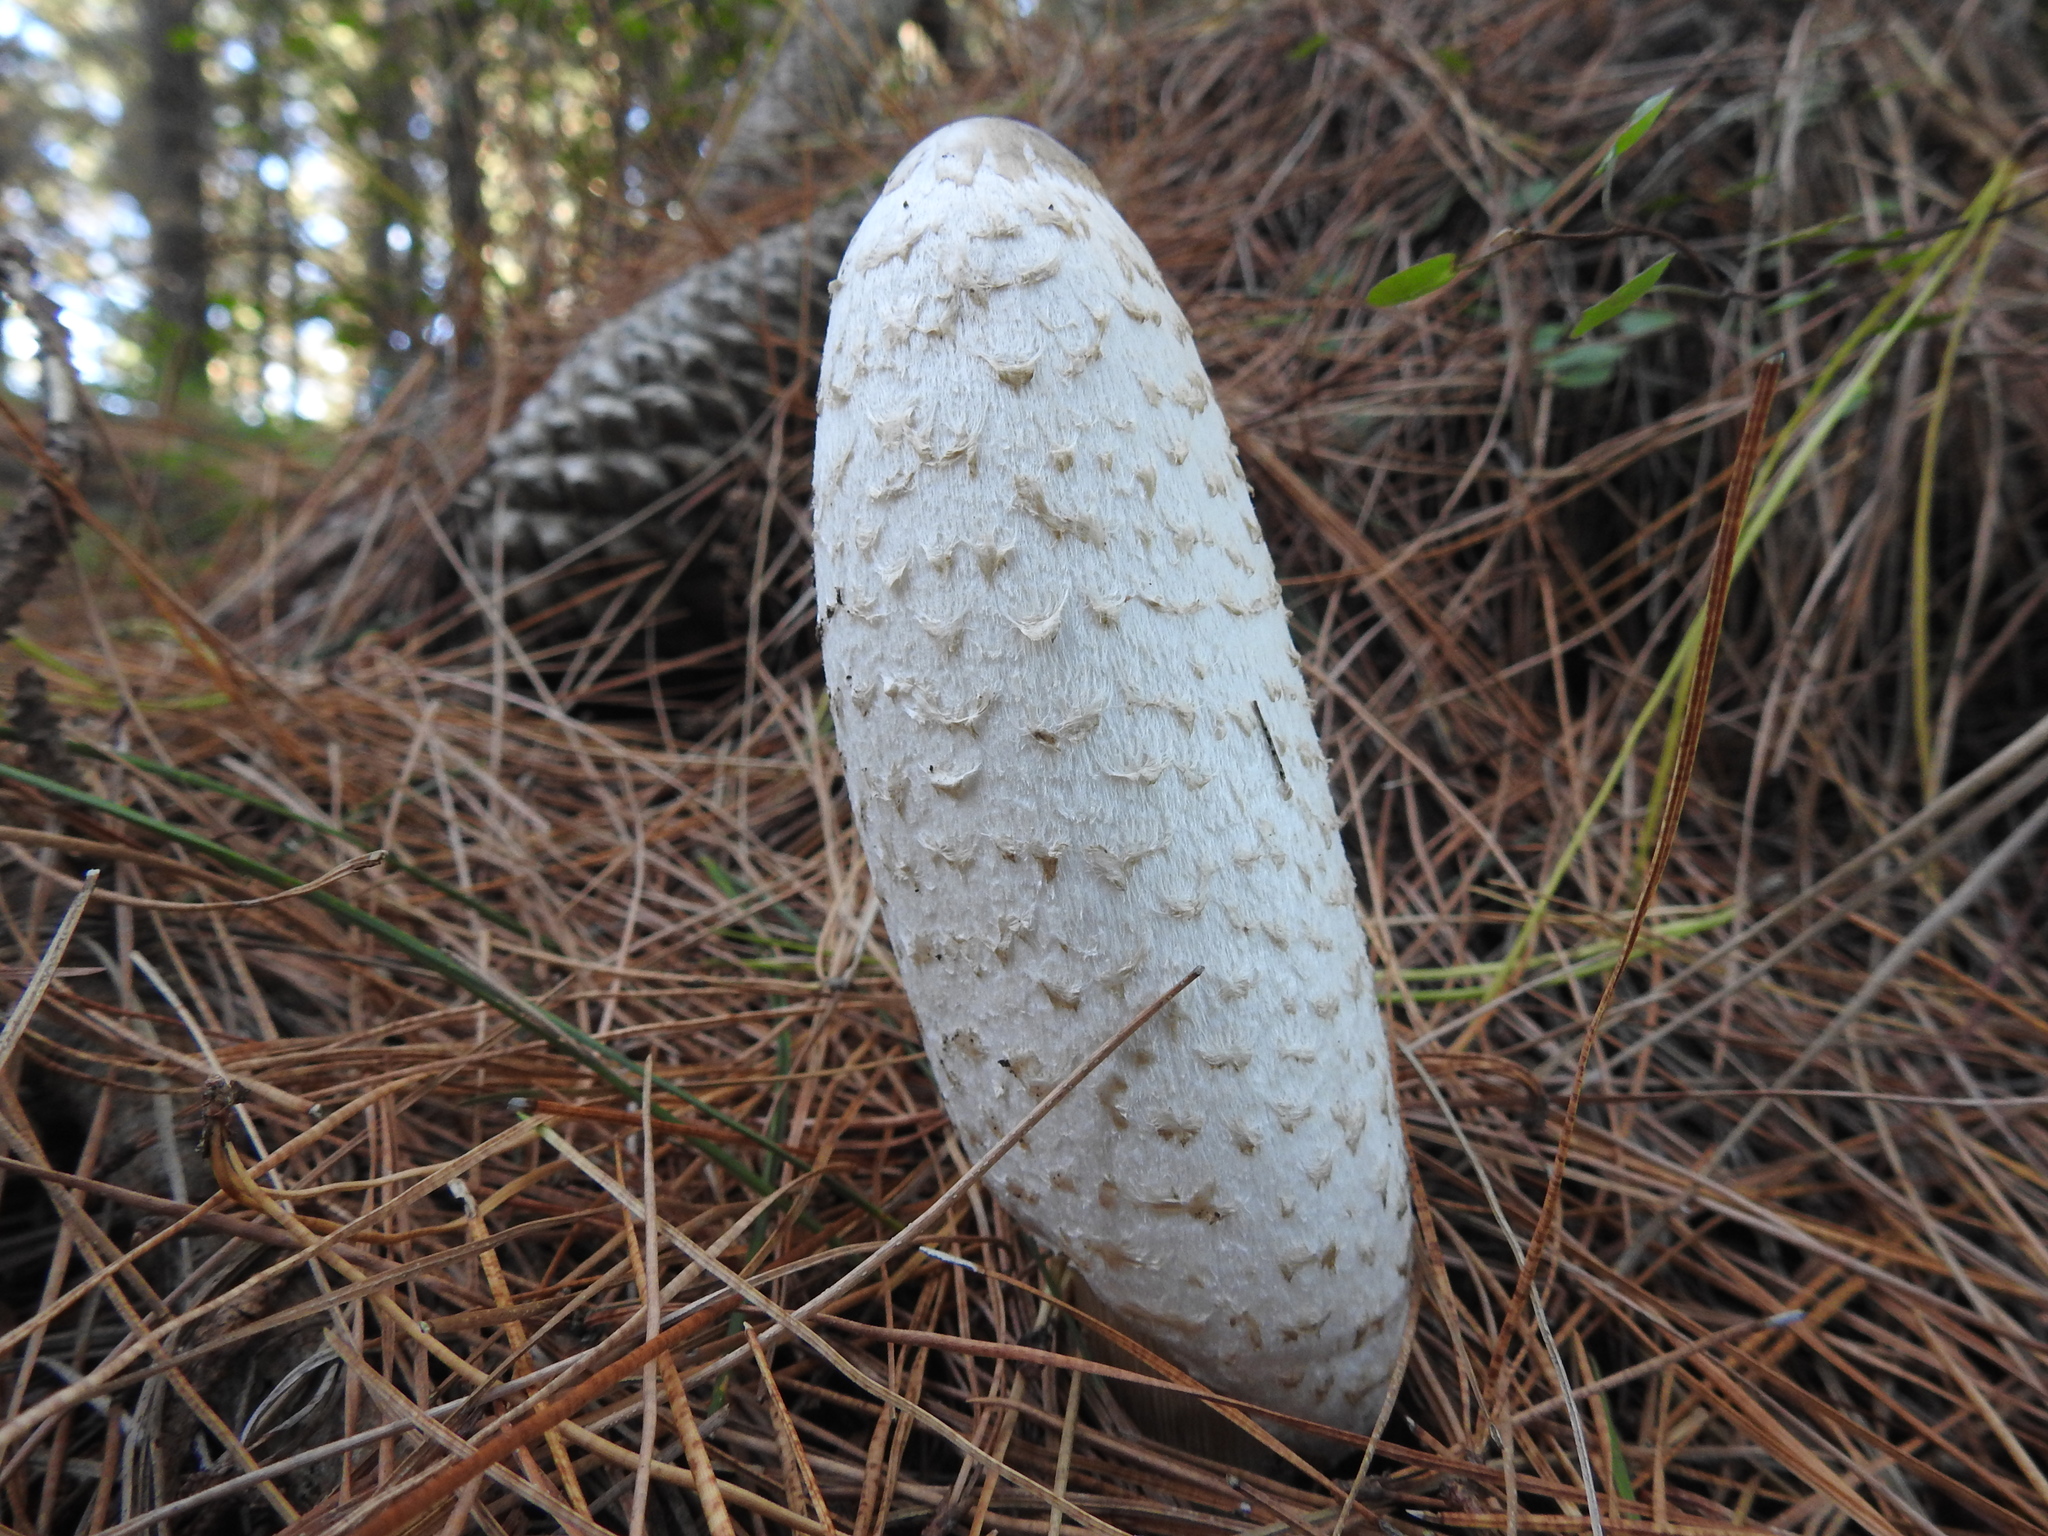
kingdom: Fungi
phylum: Basidiomycota
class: Agaricomycetes
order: Agaricales
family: Agaricaceae
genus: Coprinus
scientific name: Coprinus comatus
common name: Lawyer's wig
